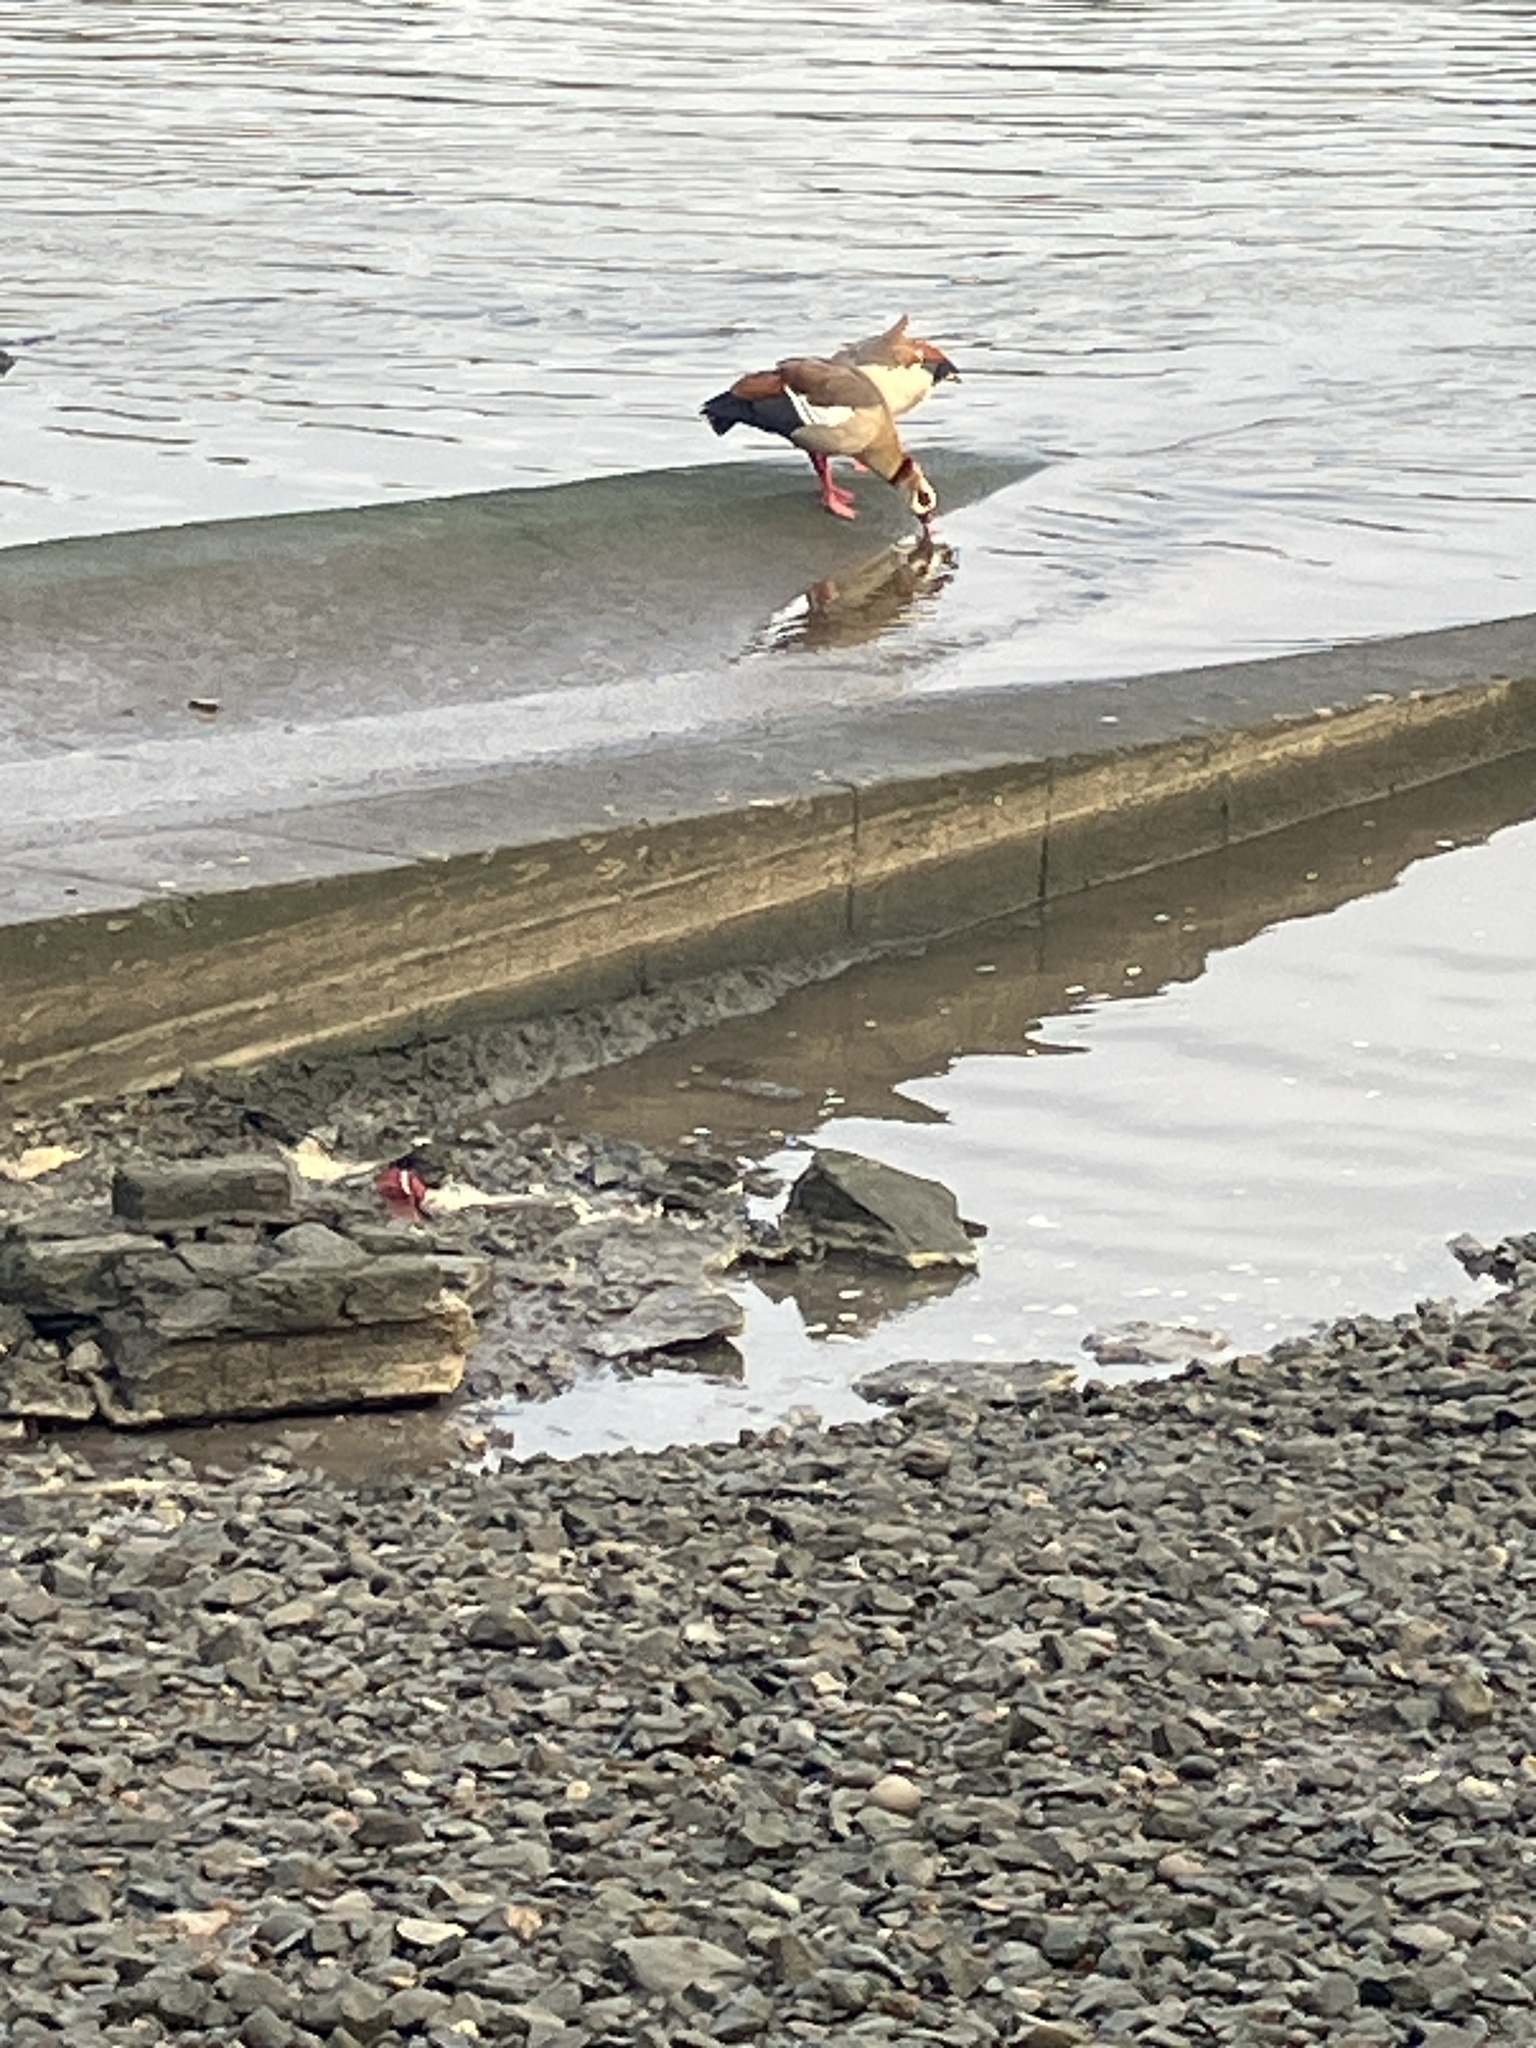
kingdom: Animalia
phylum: Chordata
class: Aves
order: Anseriformes
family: Anatidae
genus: Alopochen
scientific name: Alopochen aegyptiaca
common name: Egyptian goose
